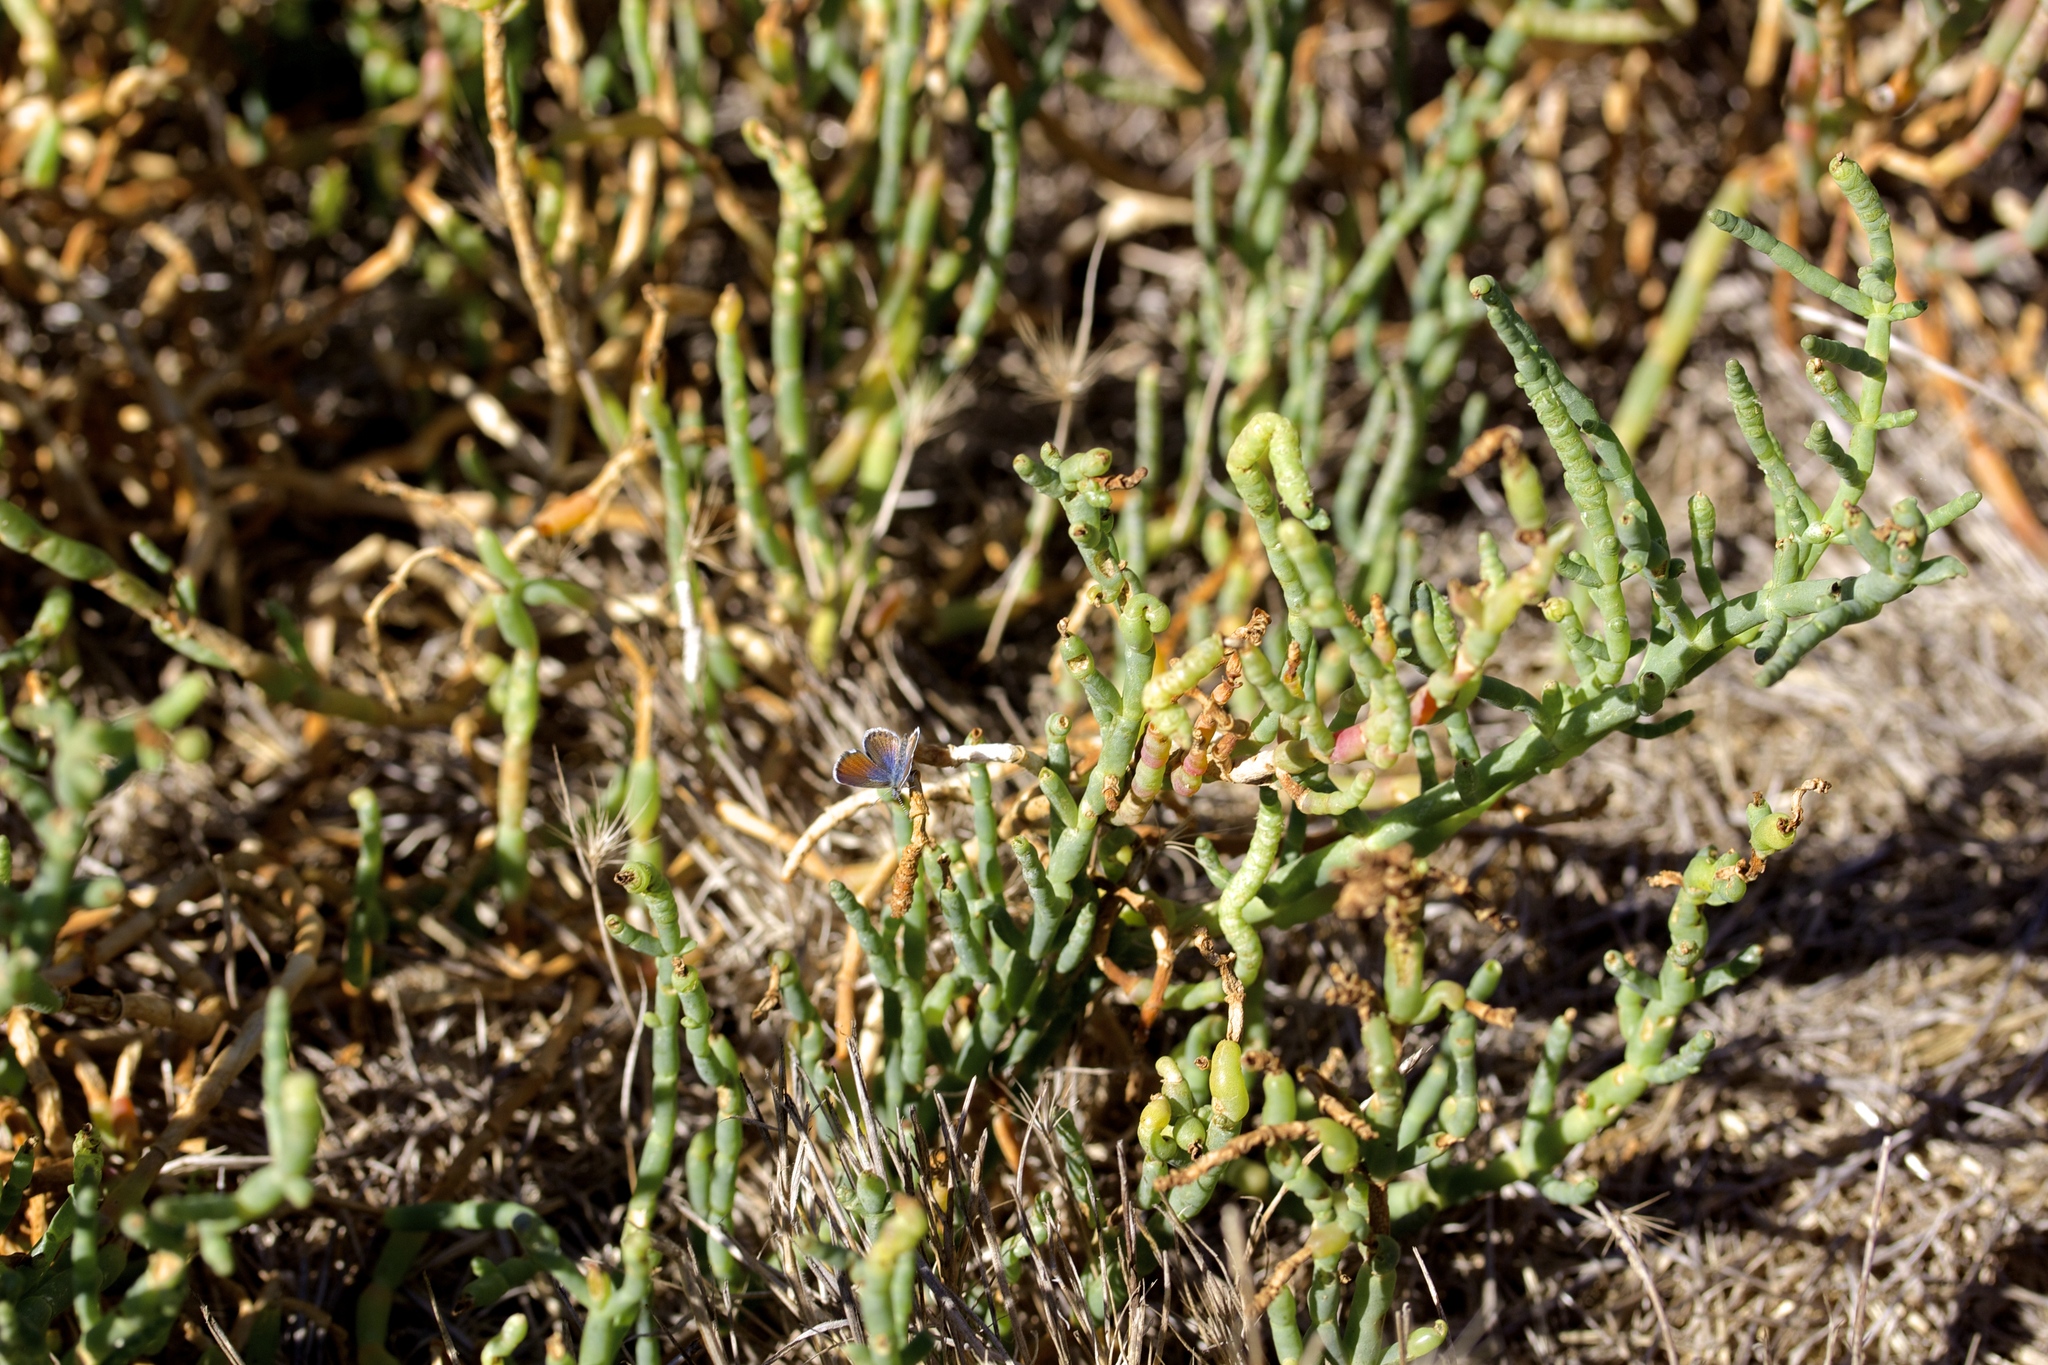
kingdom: Plantae
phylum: Tracheophyta
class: Magnoliopsida
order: Caryophyllales
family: Amaranthaceae
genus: Salicornia
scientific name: Salicornia pacifica
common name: Pacific glasswort
